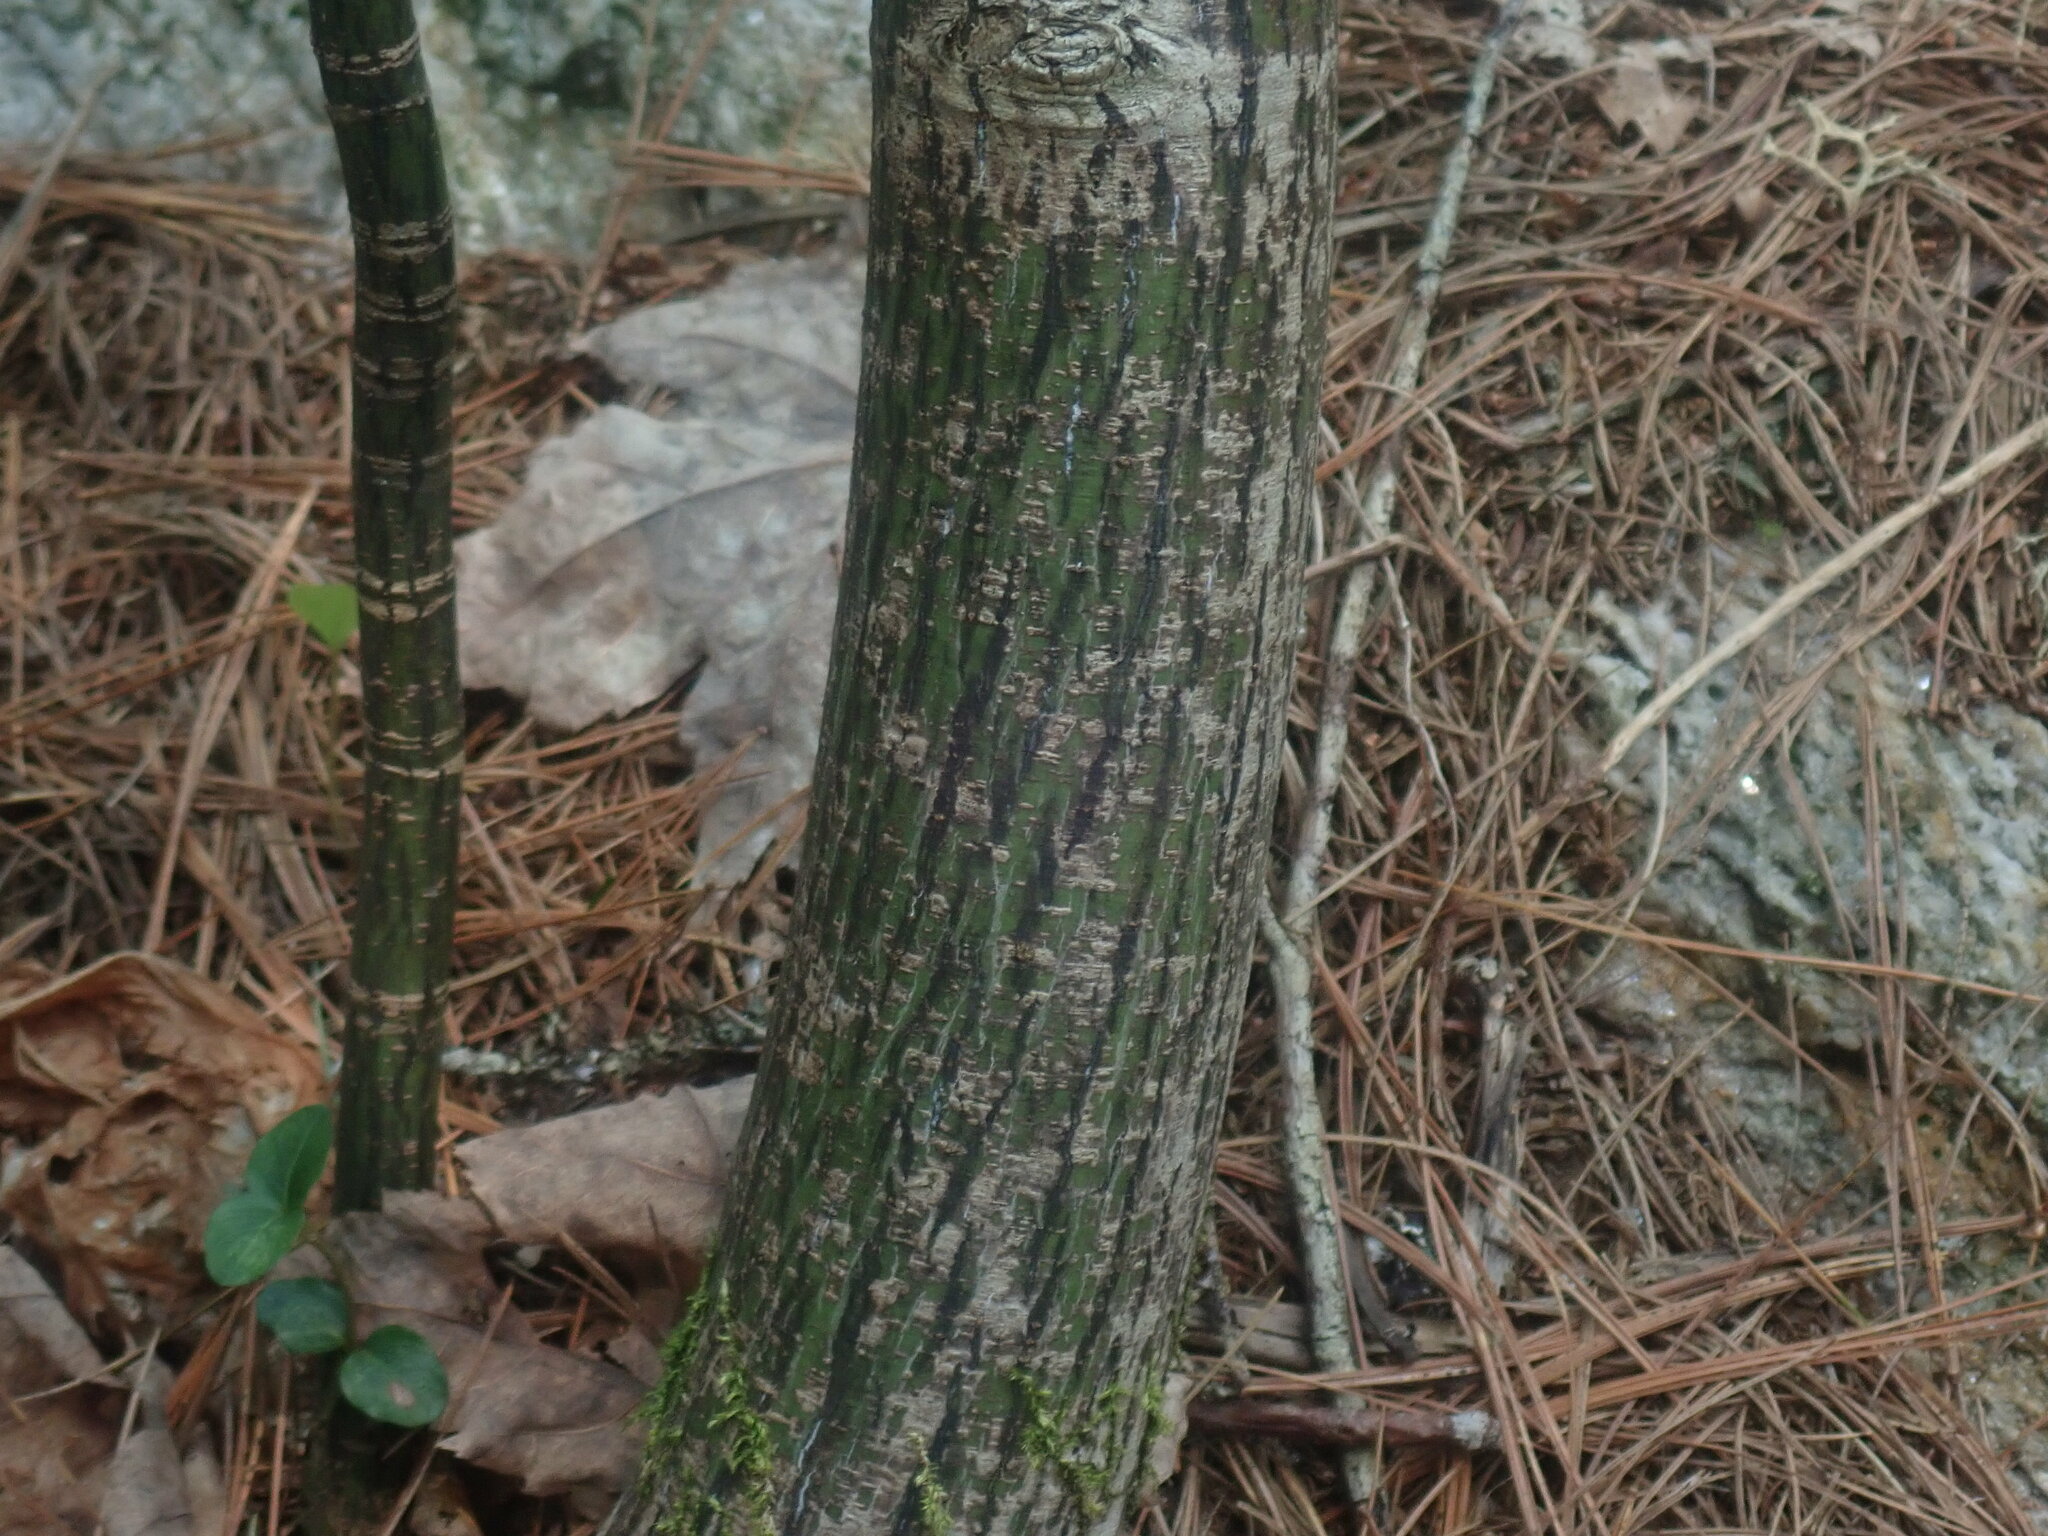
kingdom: Plantae
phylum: Tracheophyta
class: Magnoliopsida
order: Sapindales
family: Sapindaceae
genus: Acer
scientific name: Acer pensylvanicum
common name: Moosewood
